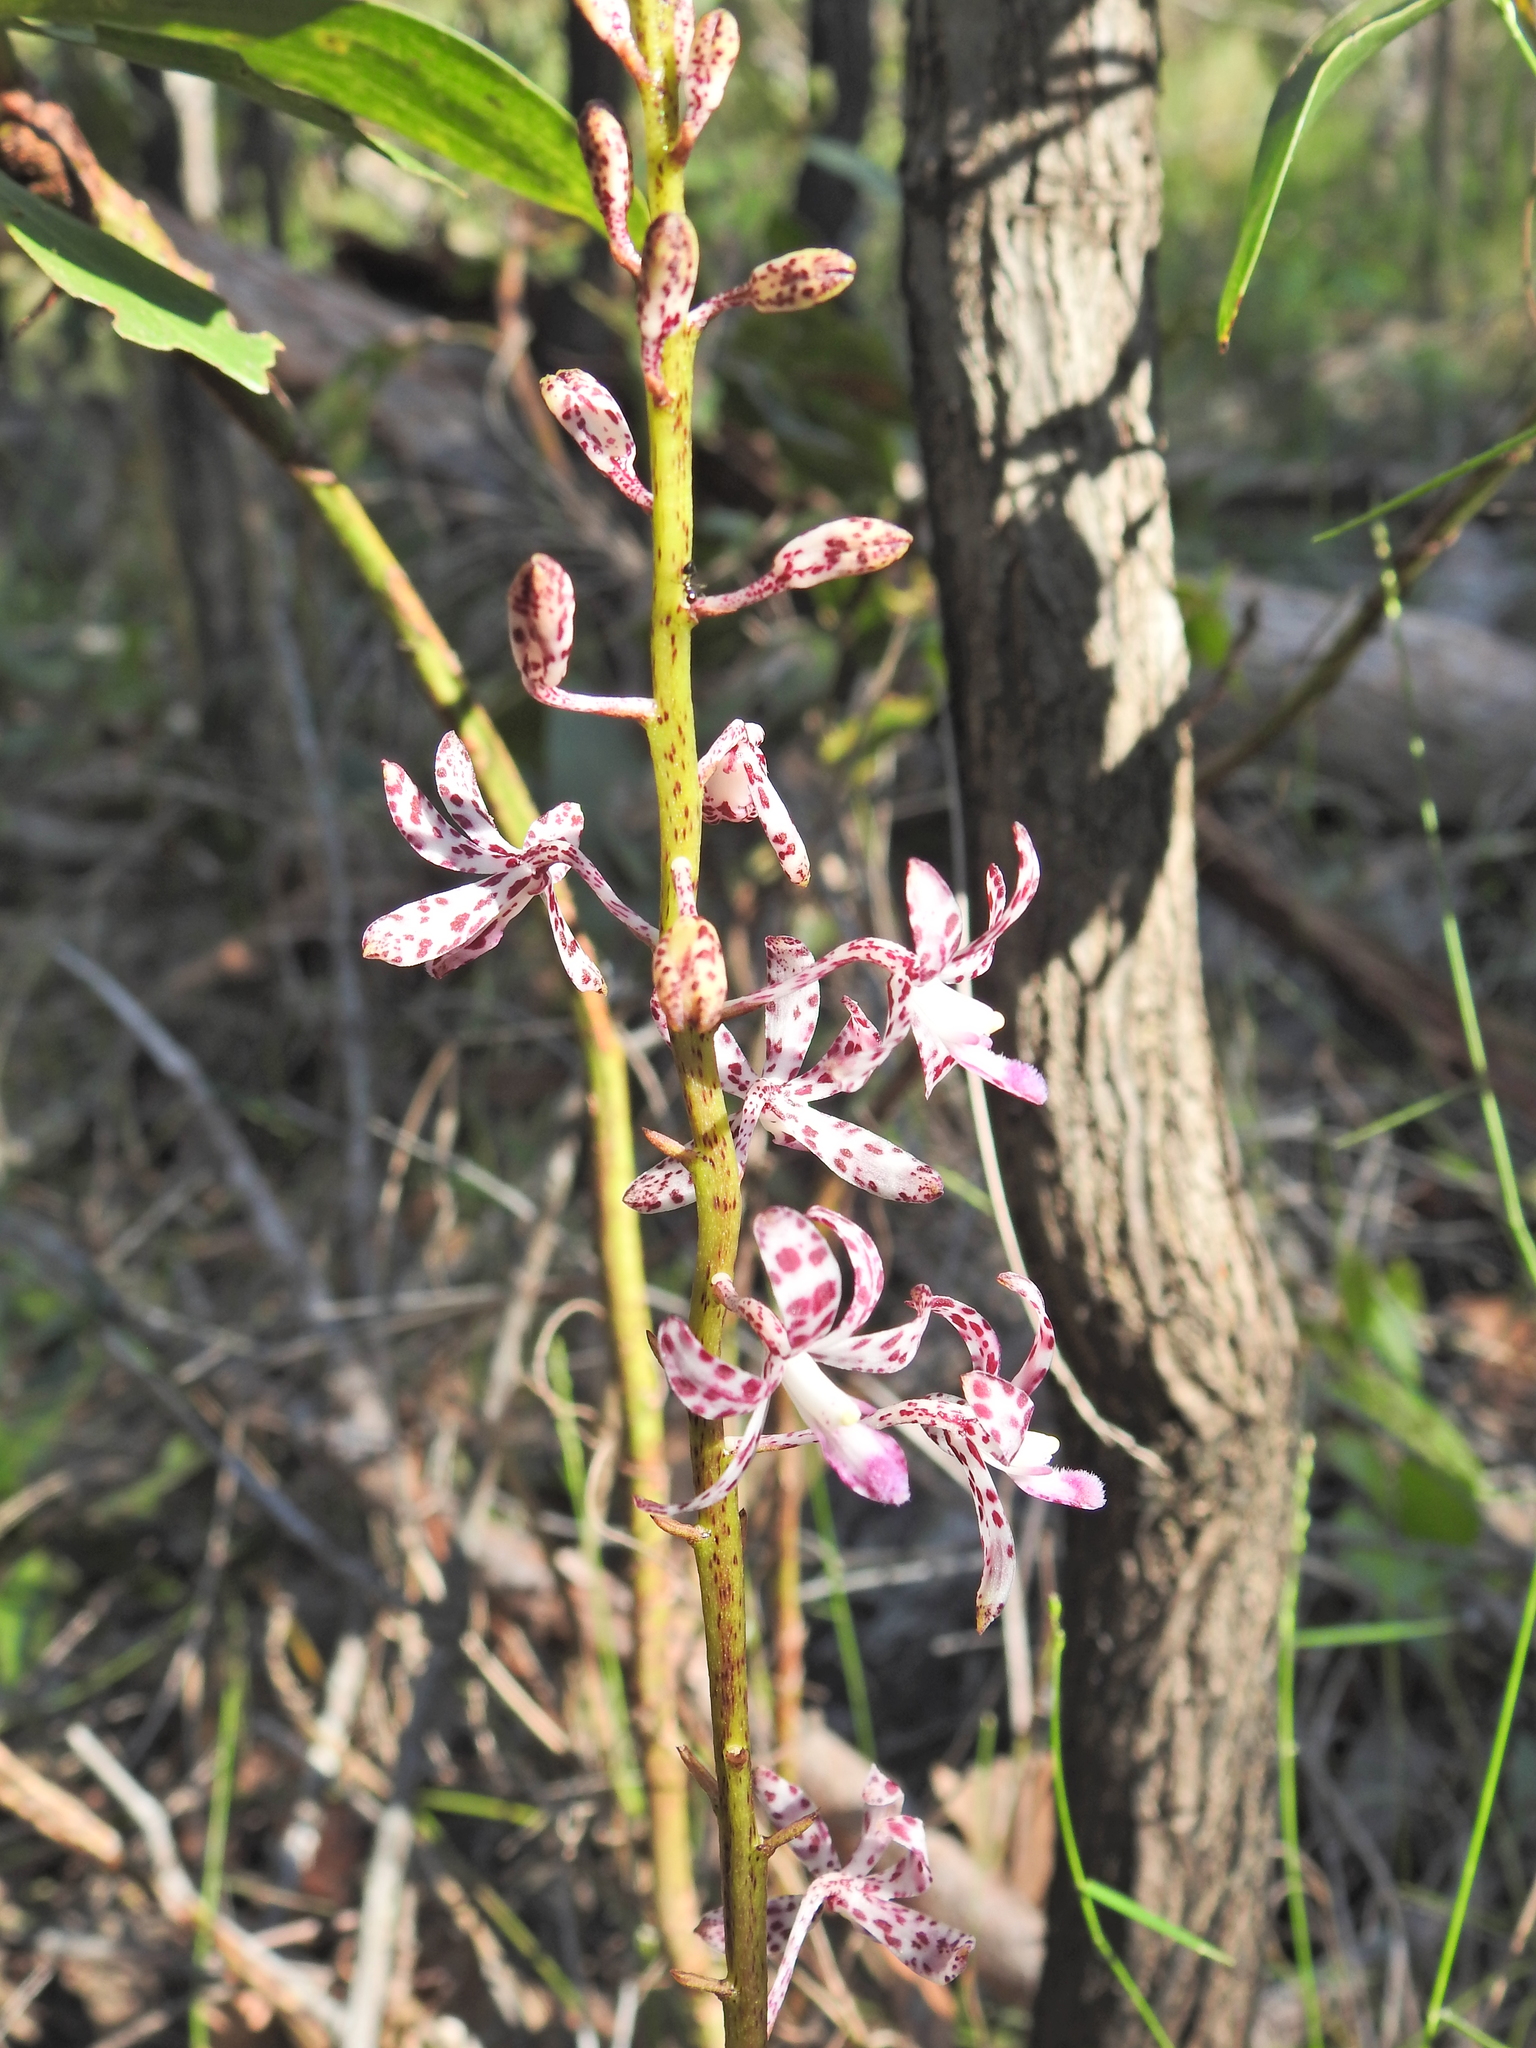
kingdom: Plantae
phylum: Tracheophyta
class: Liliopsida
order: Asparagales
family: Orchidaceae
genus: Dipodium
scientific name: Dipodium variegatum
